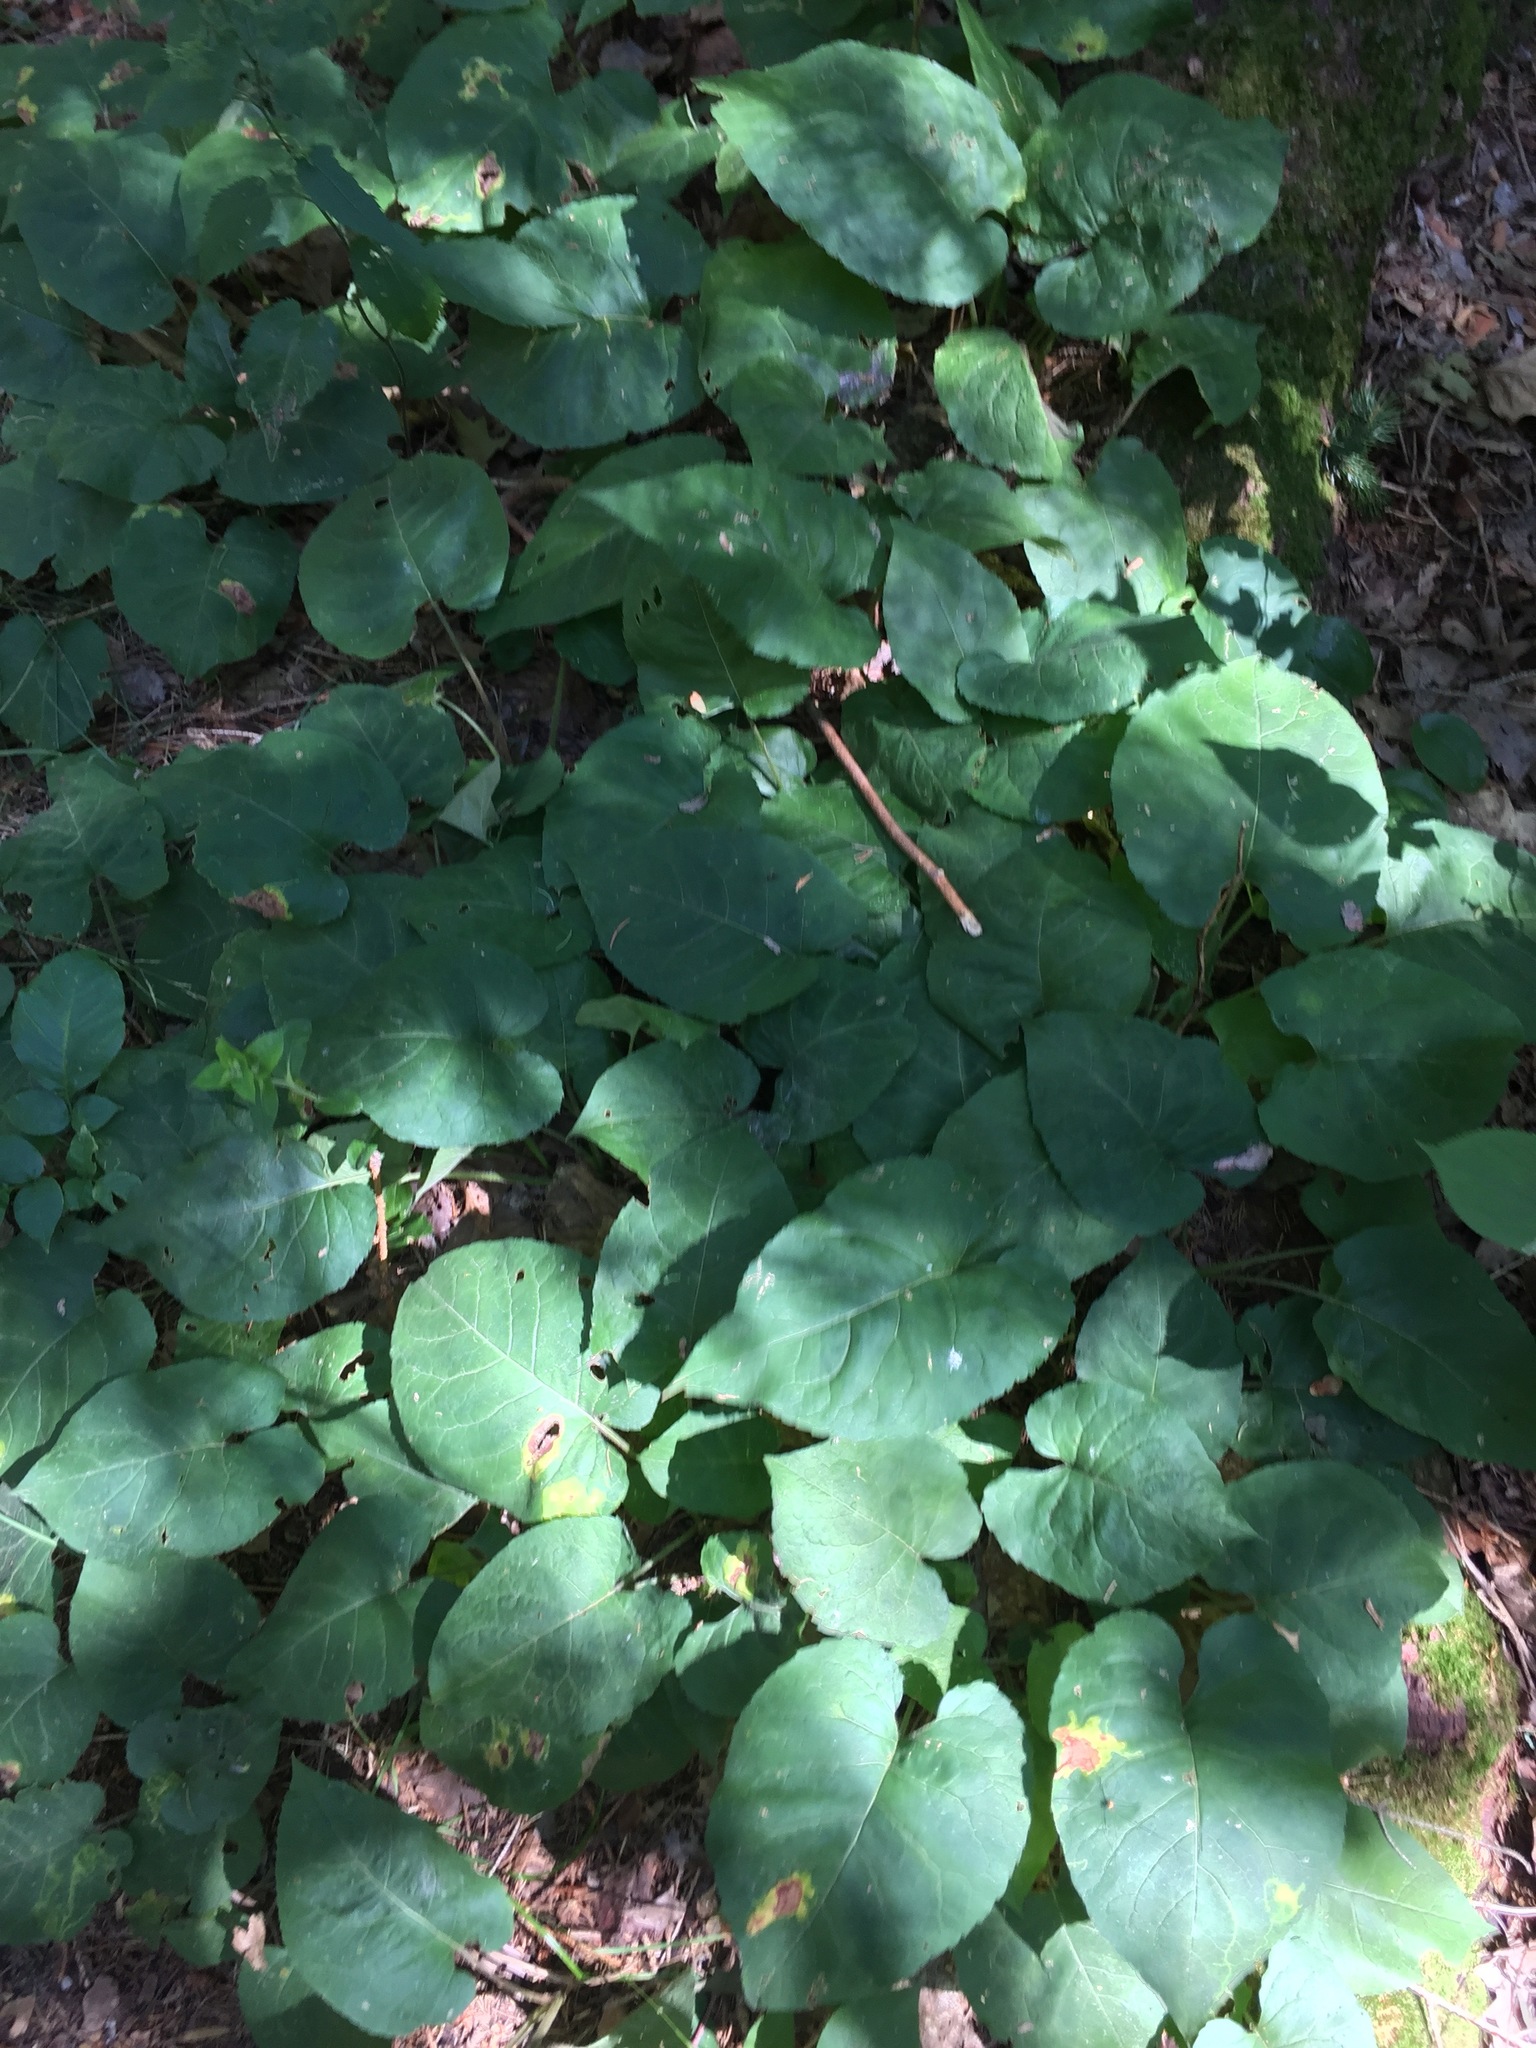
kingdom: Plantae
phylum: Tracheophyta
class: Magnoliopsida
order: Asterales
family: Asteraceae
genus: Eurybia
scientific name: Eurybia macrophylla
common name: Big-leaved aster
